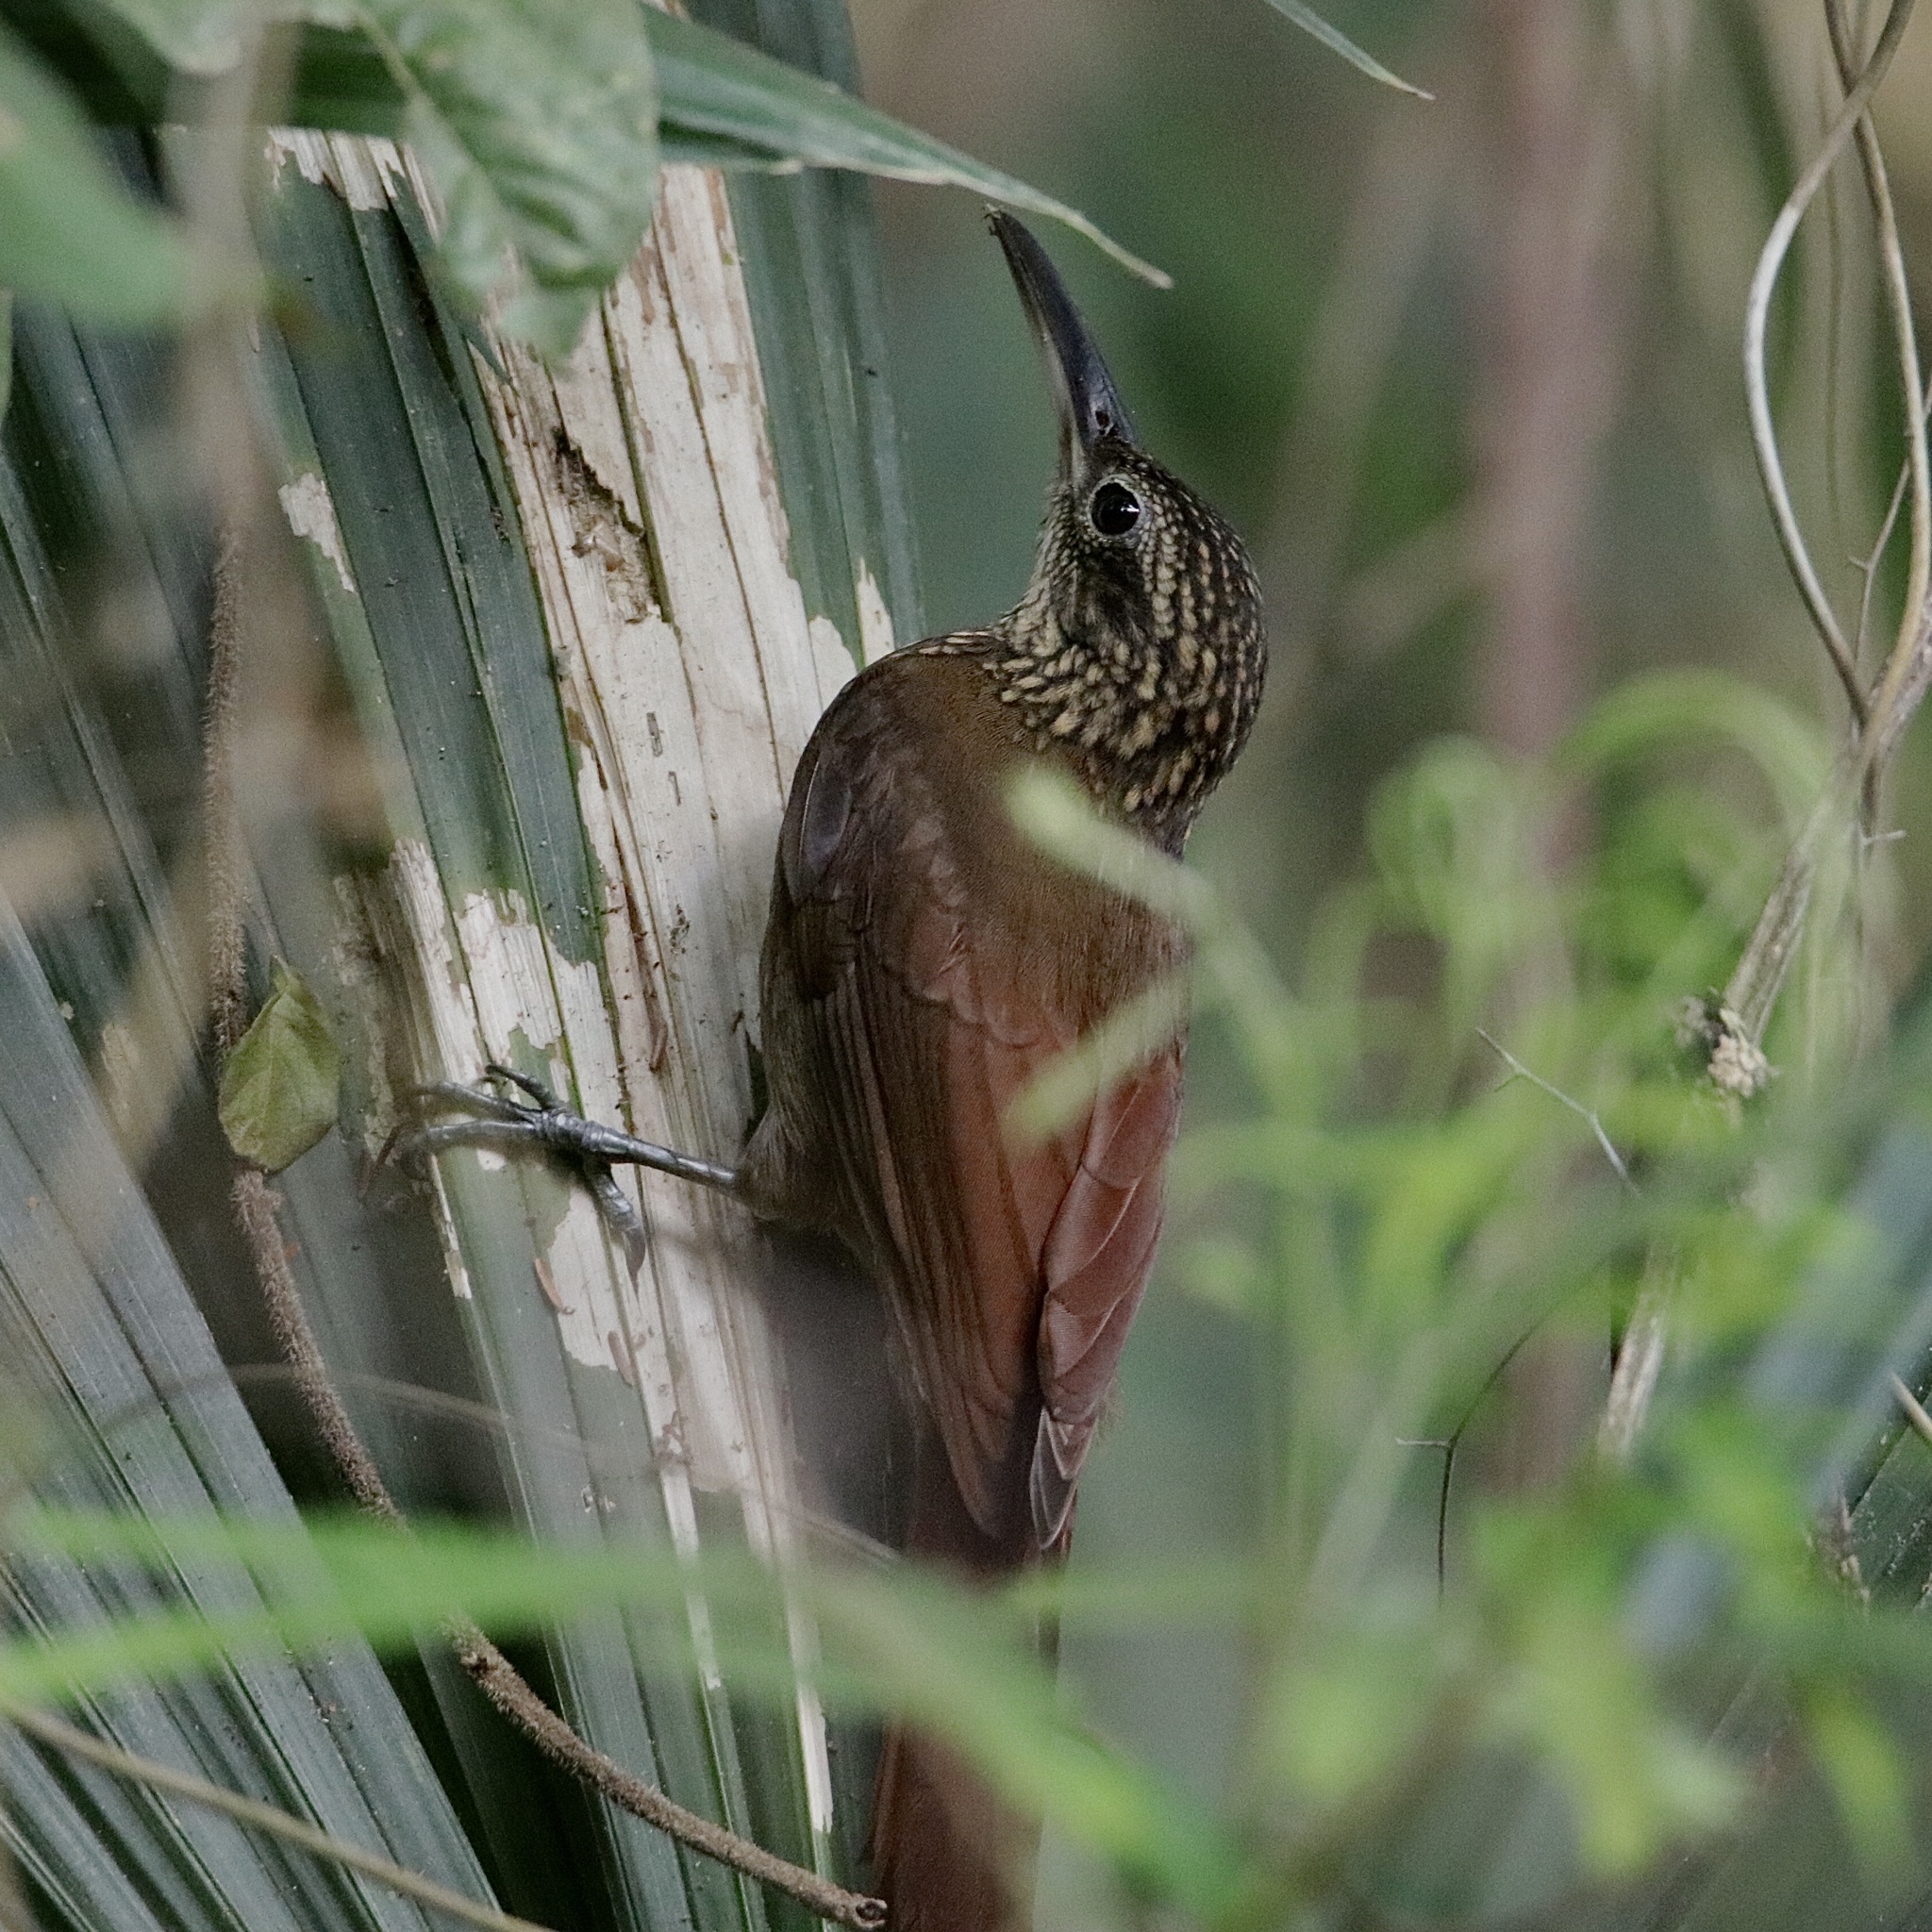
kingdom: Animalia
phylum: Chordata
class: Aves
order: Passeriformes
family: Furnariidae
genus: Xiphorhynchus
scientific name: Xiphorhynchus susurrans
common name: Cocoa woodcreeper
